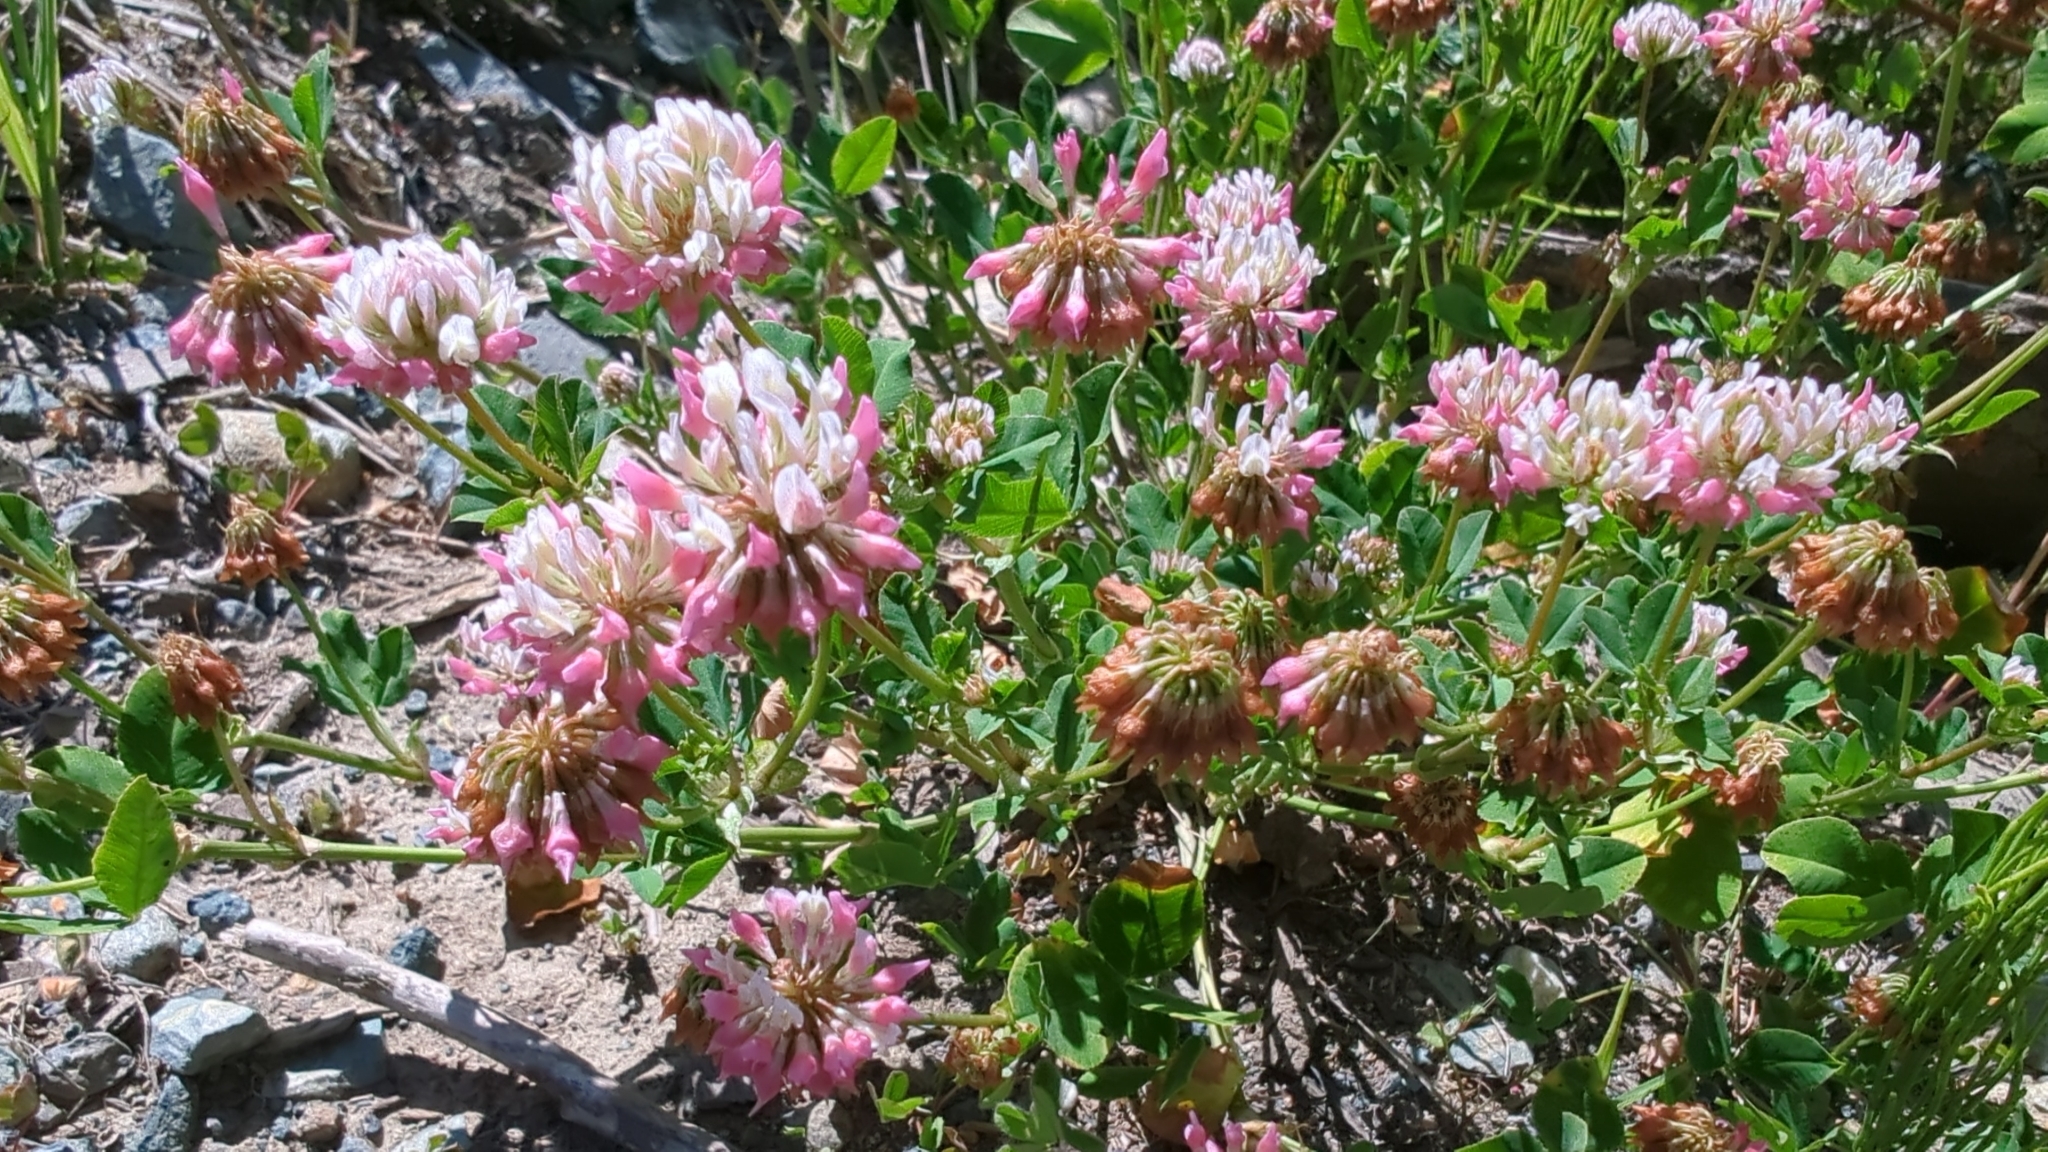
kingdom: Plantae
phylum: Tracheophyta
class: Magnoliopsida
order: Fabales
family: Fabaceae
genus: Trifolium
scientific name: Trifolium hybridum
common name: Alsike clover
